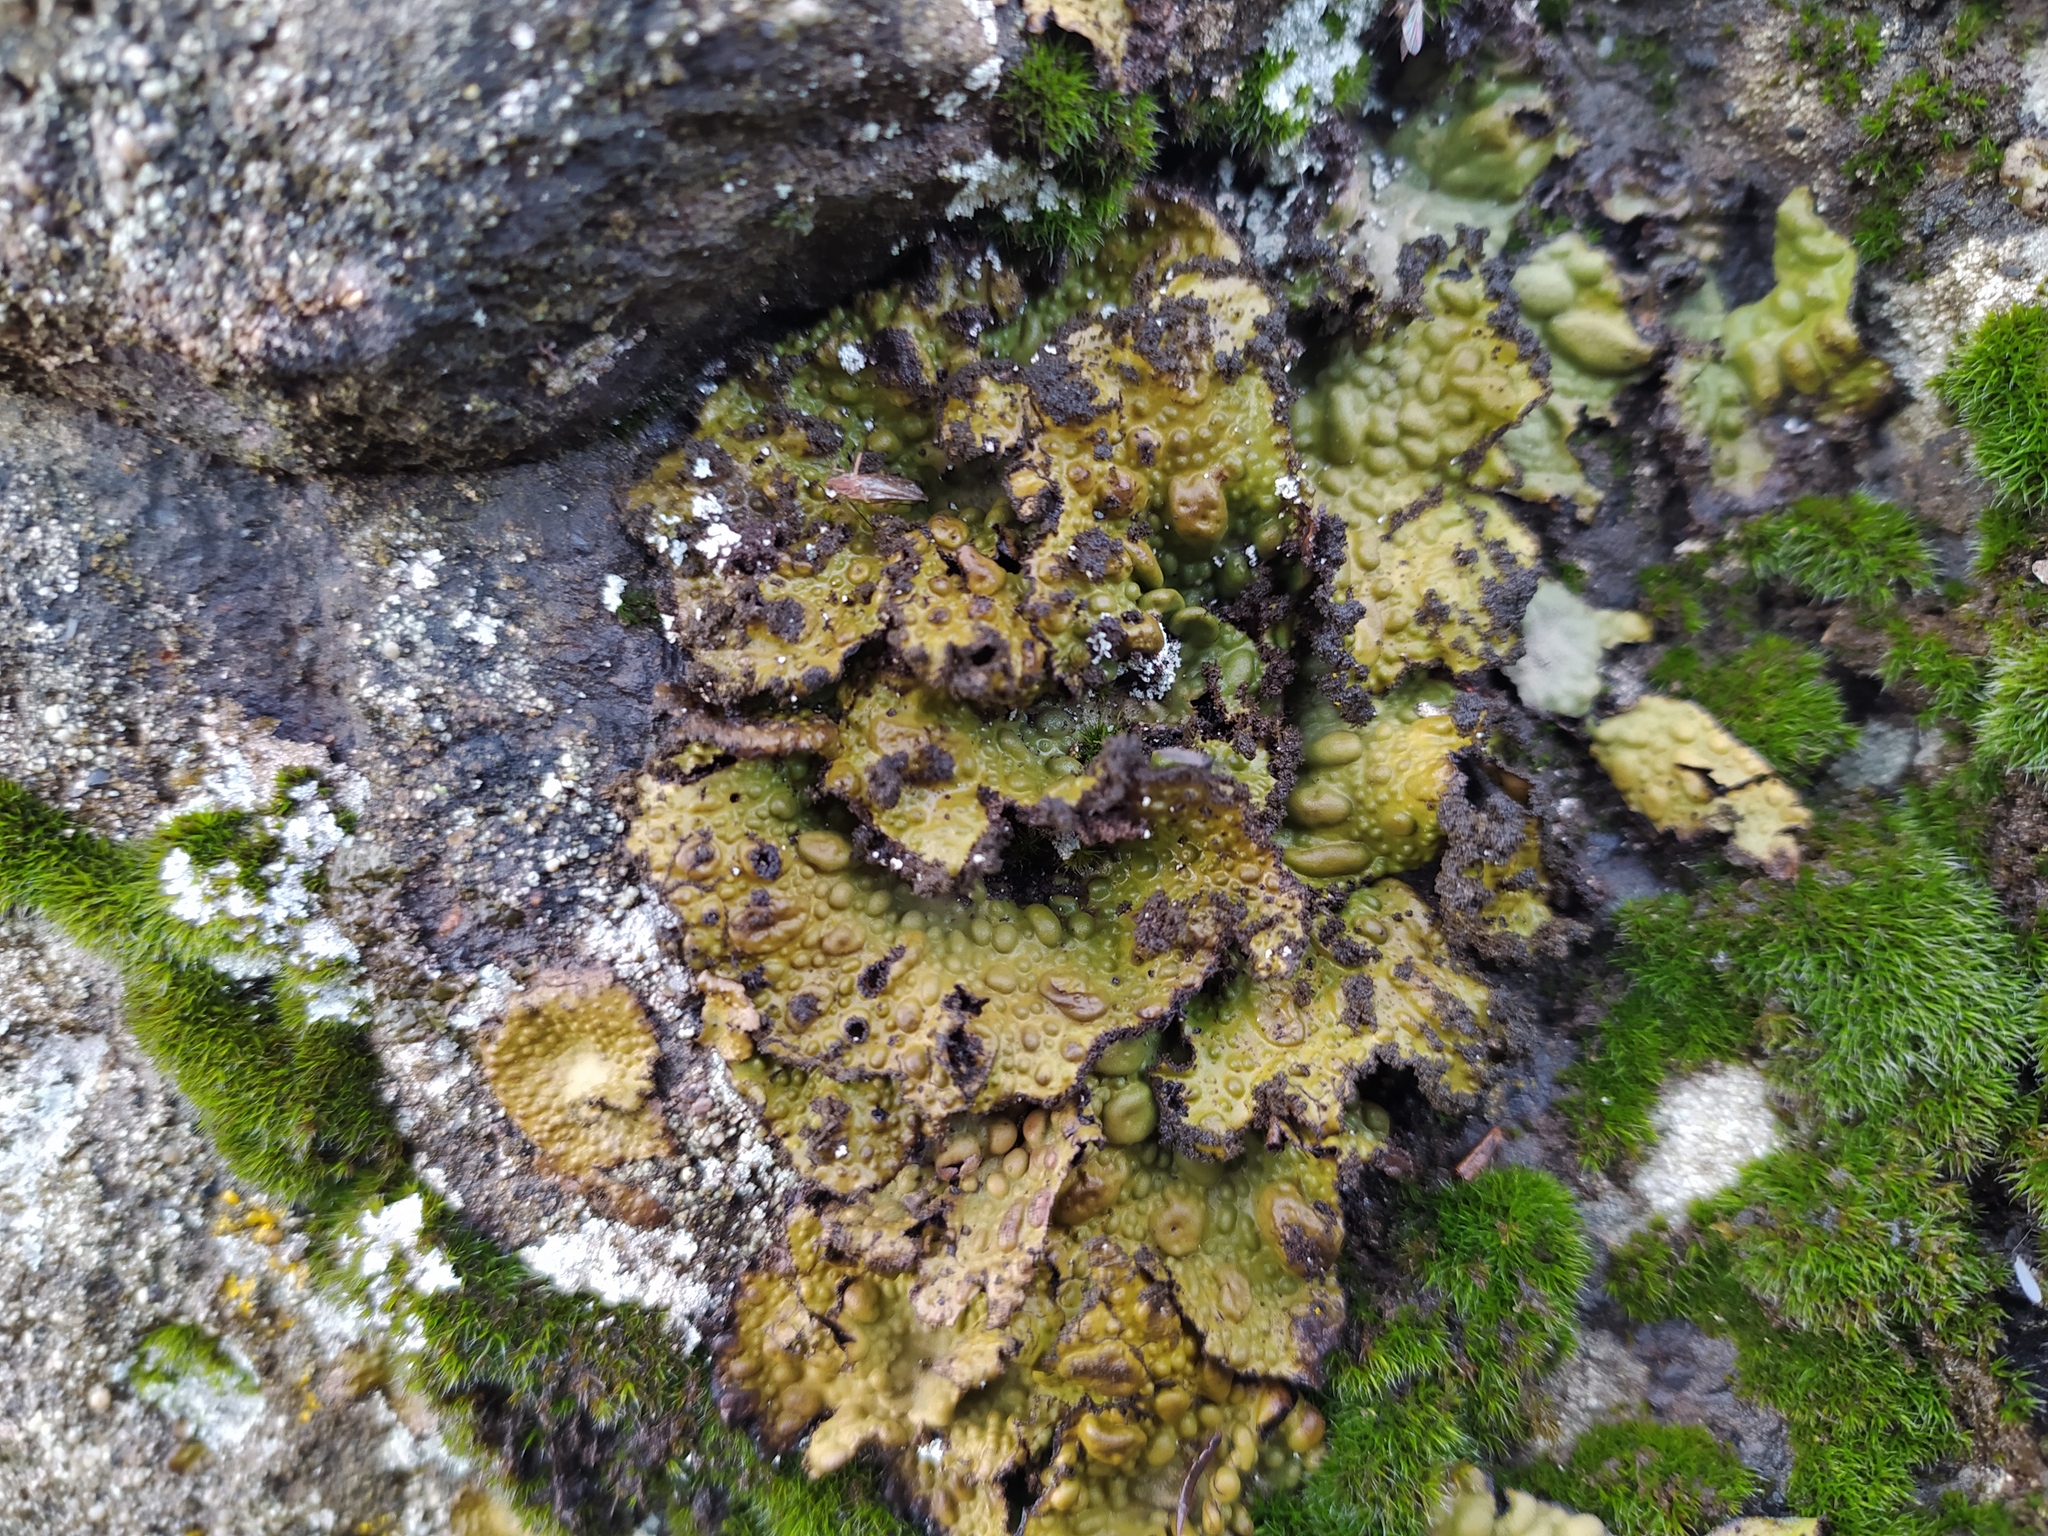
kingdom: Fungi
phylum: Ascomycota
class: Lecanoromycetes
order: Umbilicariales
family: Umbilicariaceae
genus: Lasallia
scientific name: Lasallia pustulata
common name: Blistered toadskin lichen
